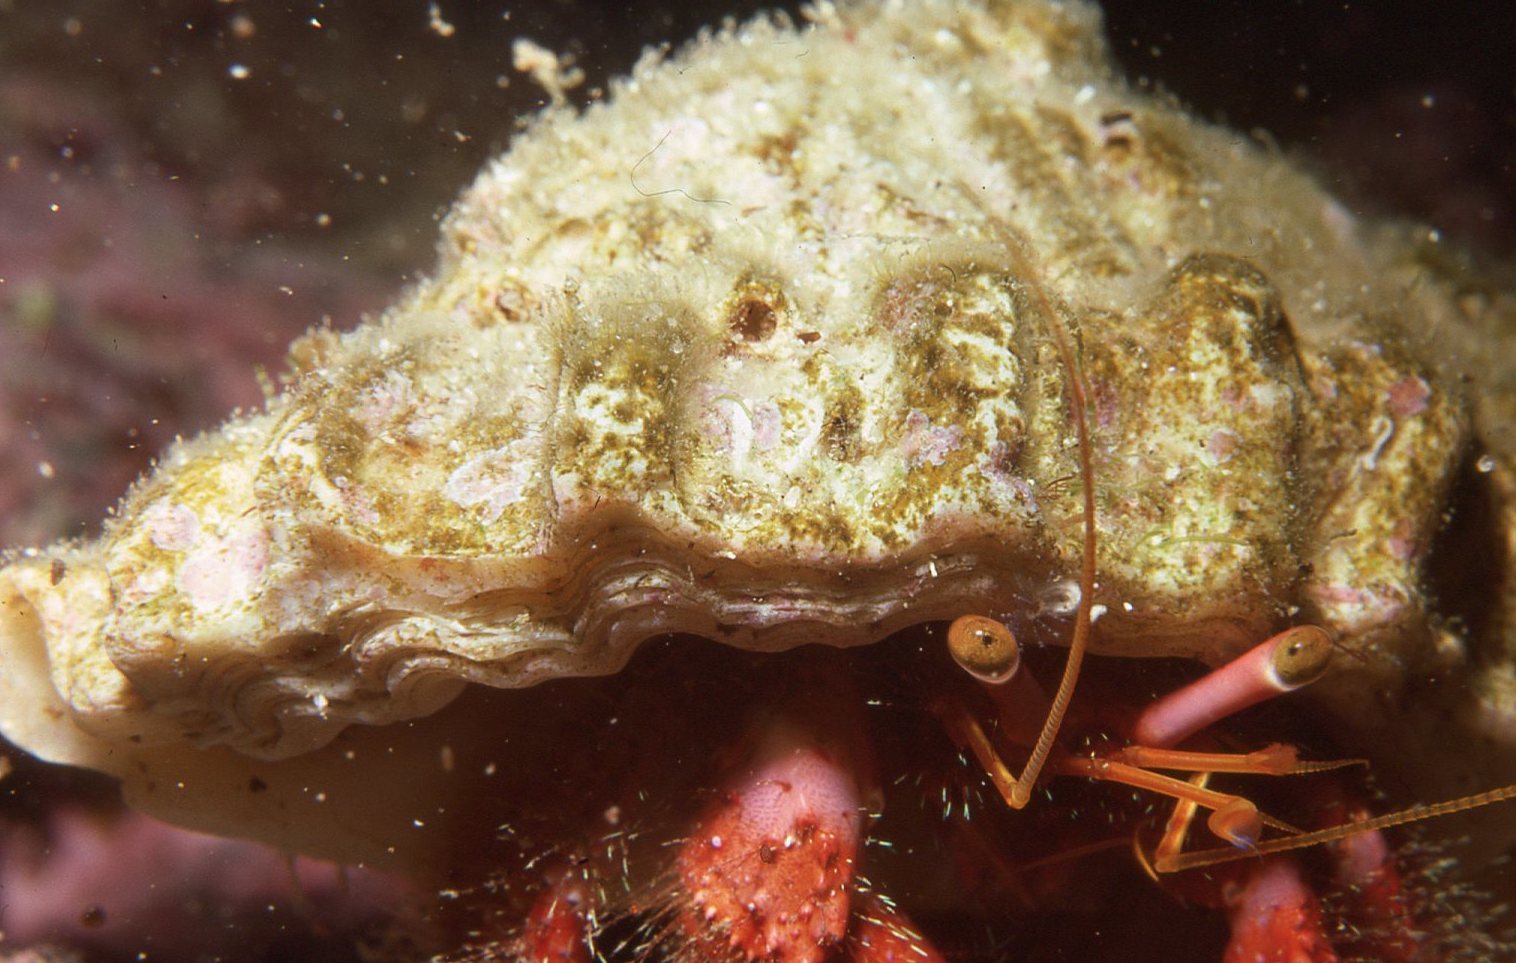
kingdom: Animalia
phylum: Arthropoda
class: Malacostraca
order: Decapoda
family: Diogenidae
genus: Dardanus
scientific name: Dardanus crassimanus
